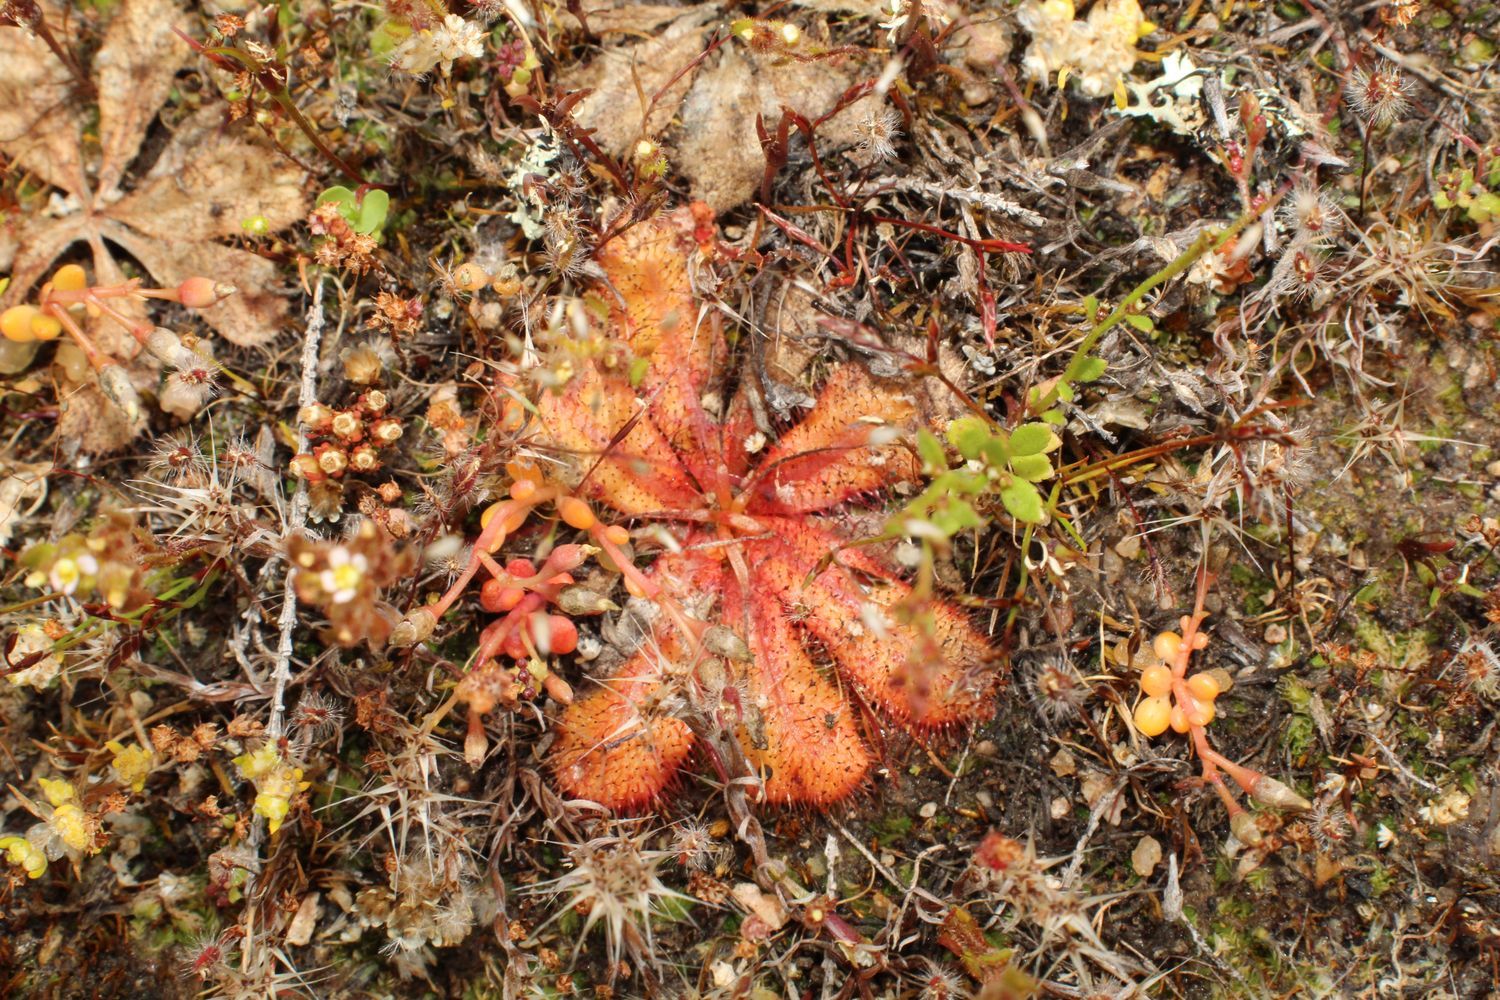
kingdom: Plantae
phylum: Tracheophyta
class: Magnoliopsida
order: Caryophyllales
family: Droseraceae
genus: Drosera
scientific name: Drosera bulbosa
